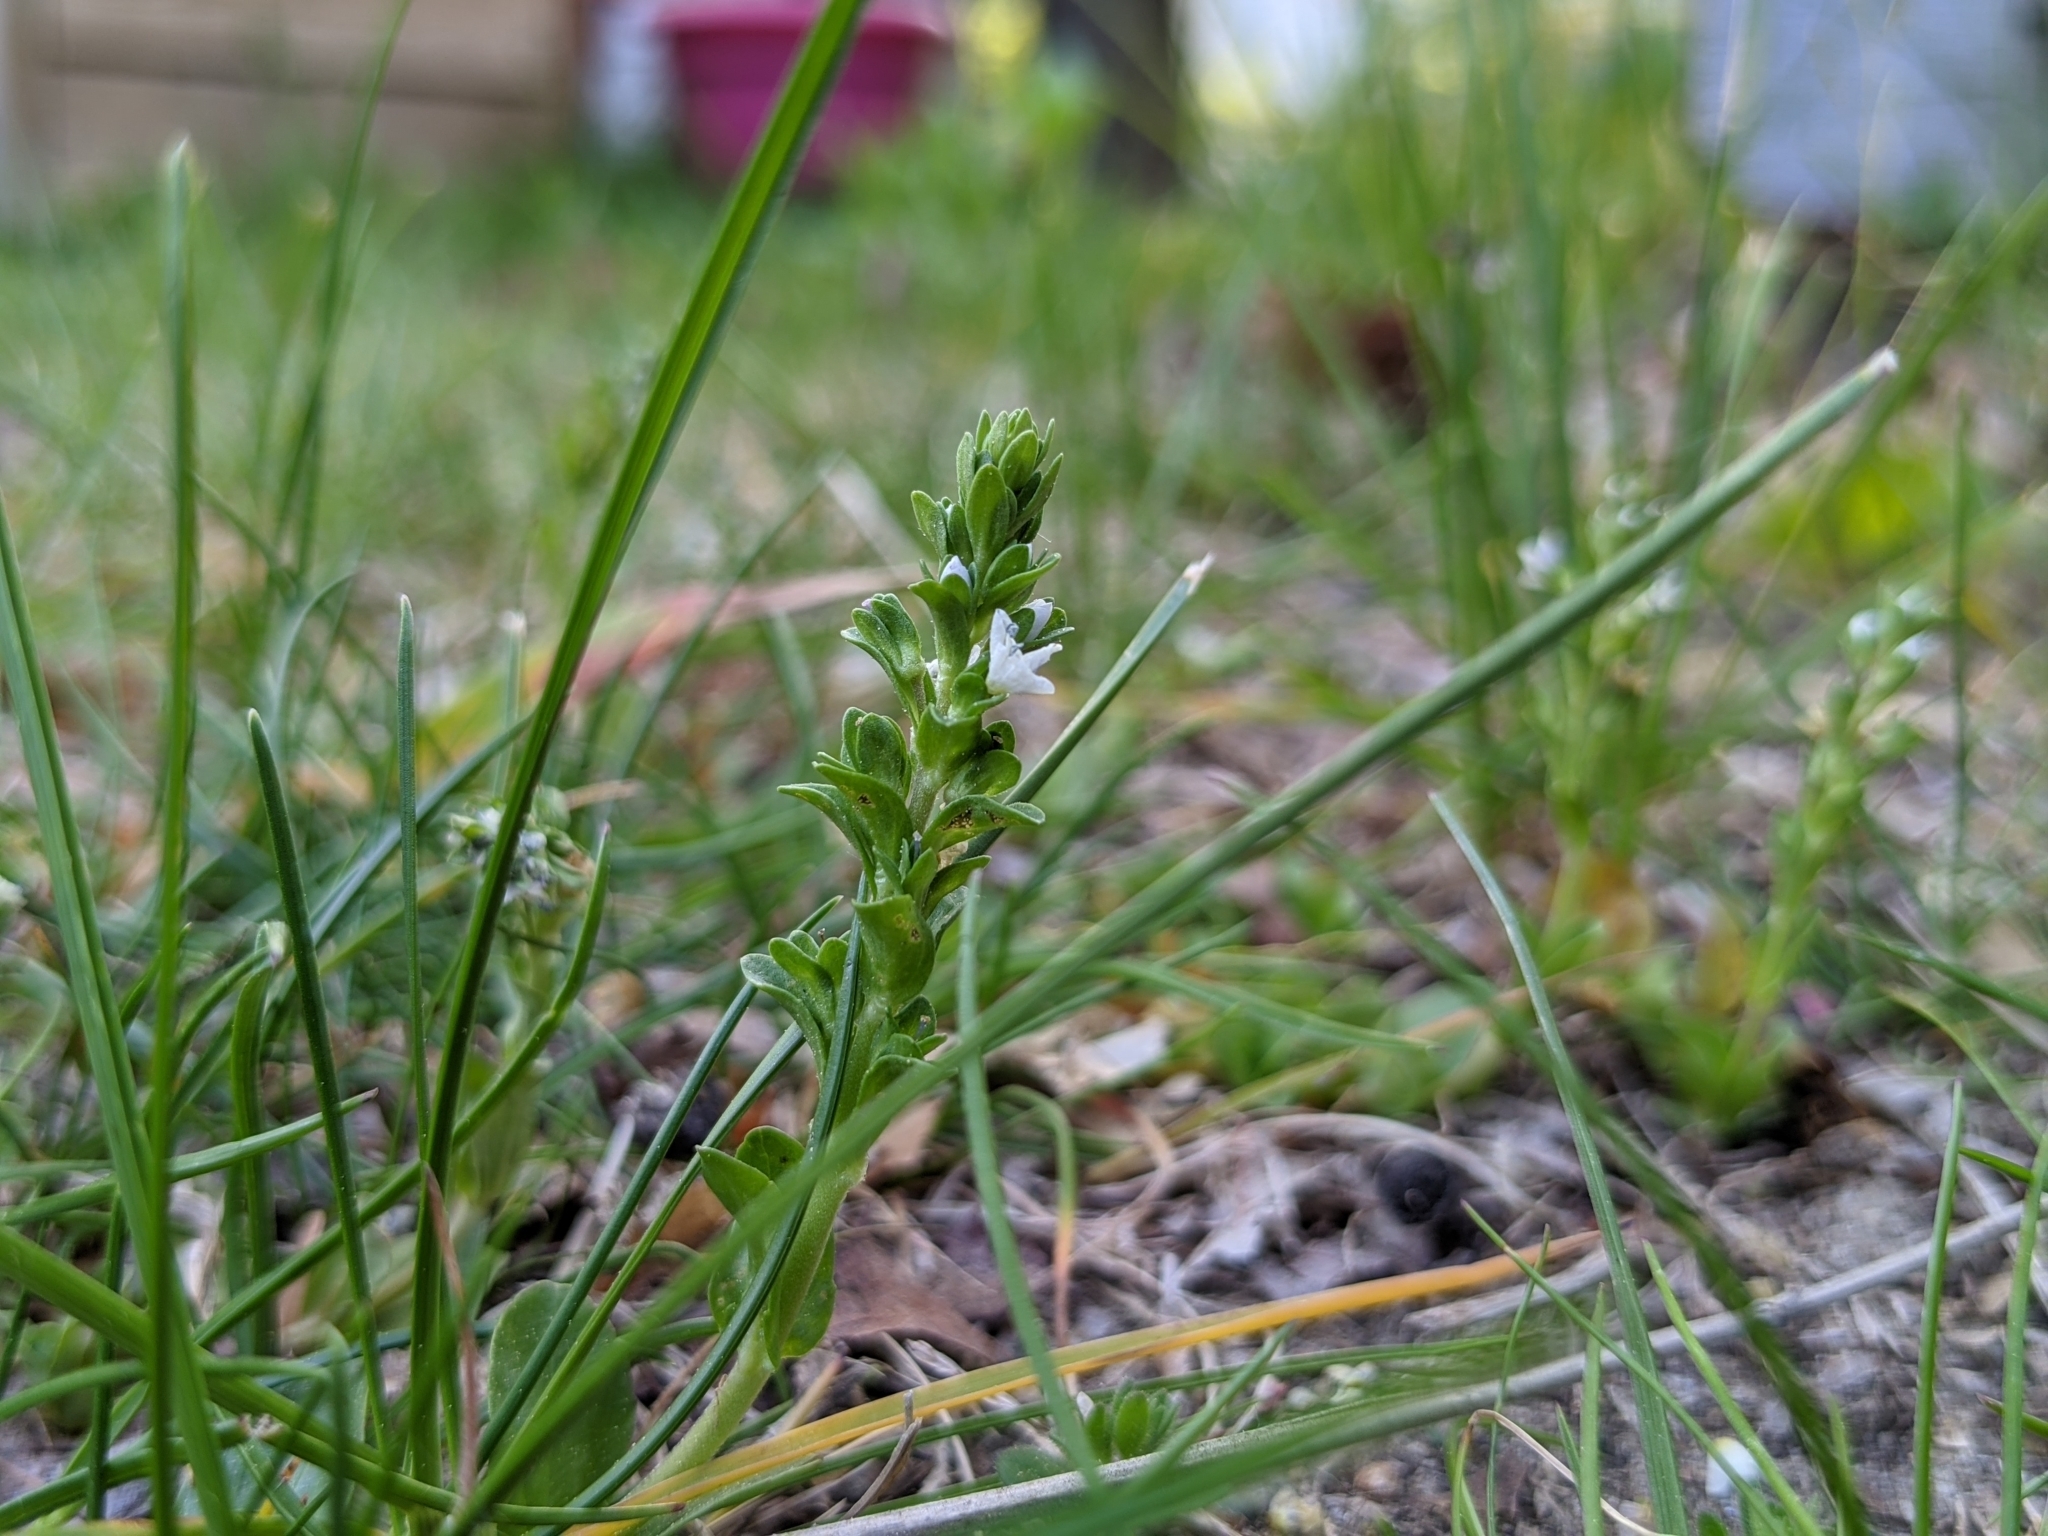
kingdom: Plantae
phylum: Tracheophyta
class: Magnoliopsida
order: Lamiales
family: Plantaginaceae
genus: Veronica
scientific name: Veronica serpyllifolia
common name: Thyme-leaved speedwell
